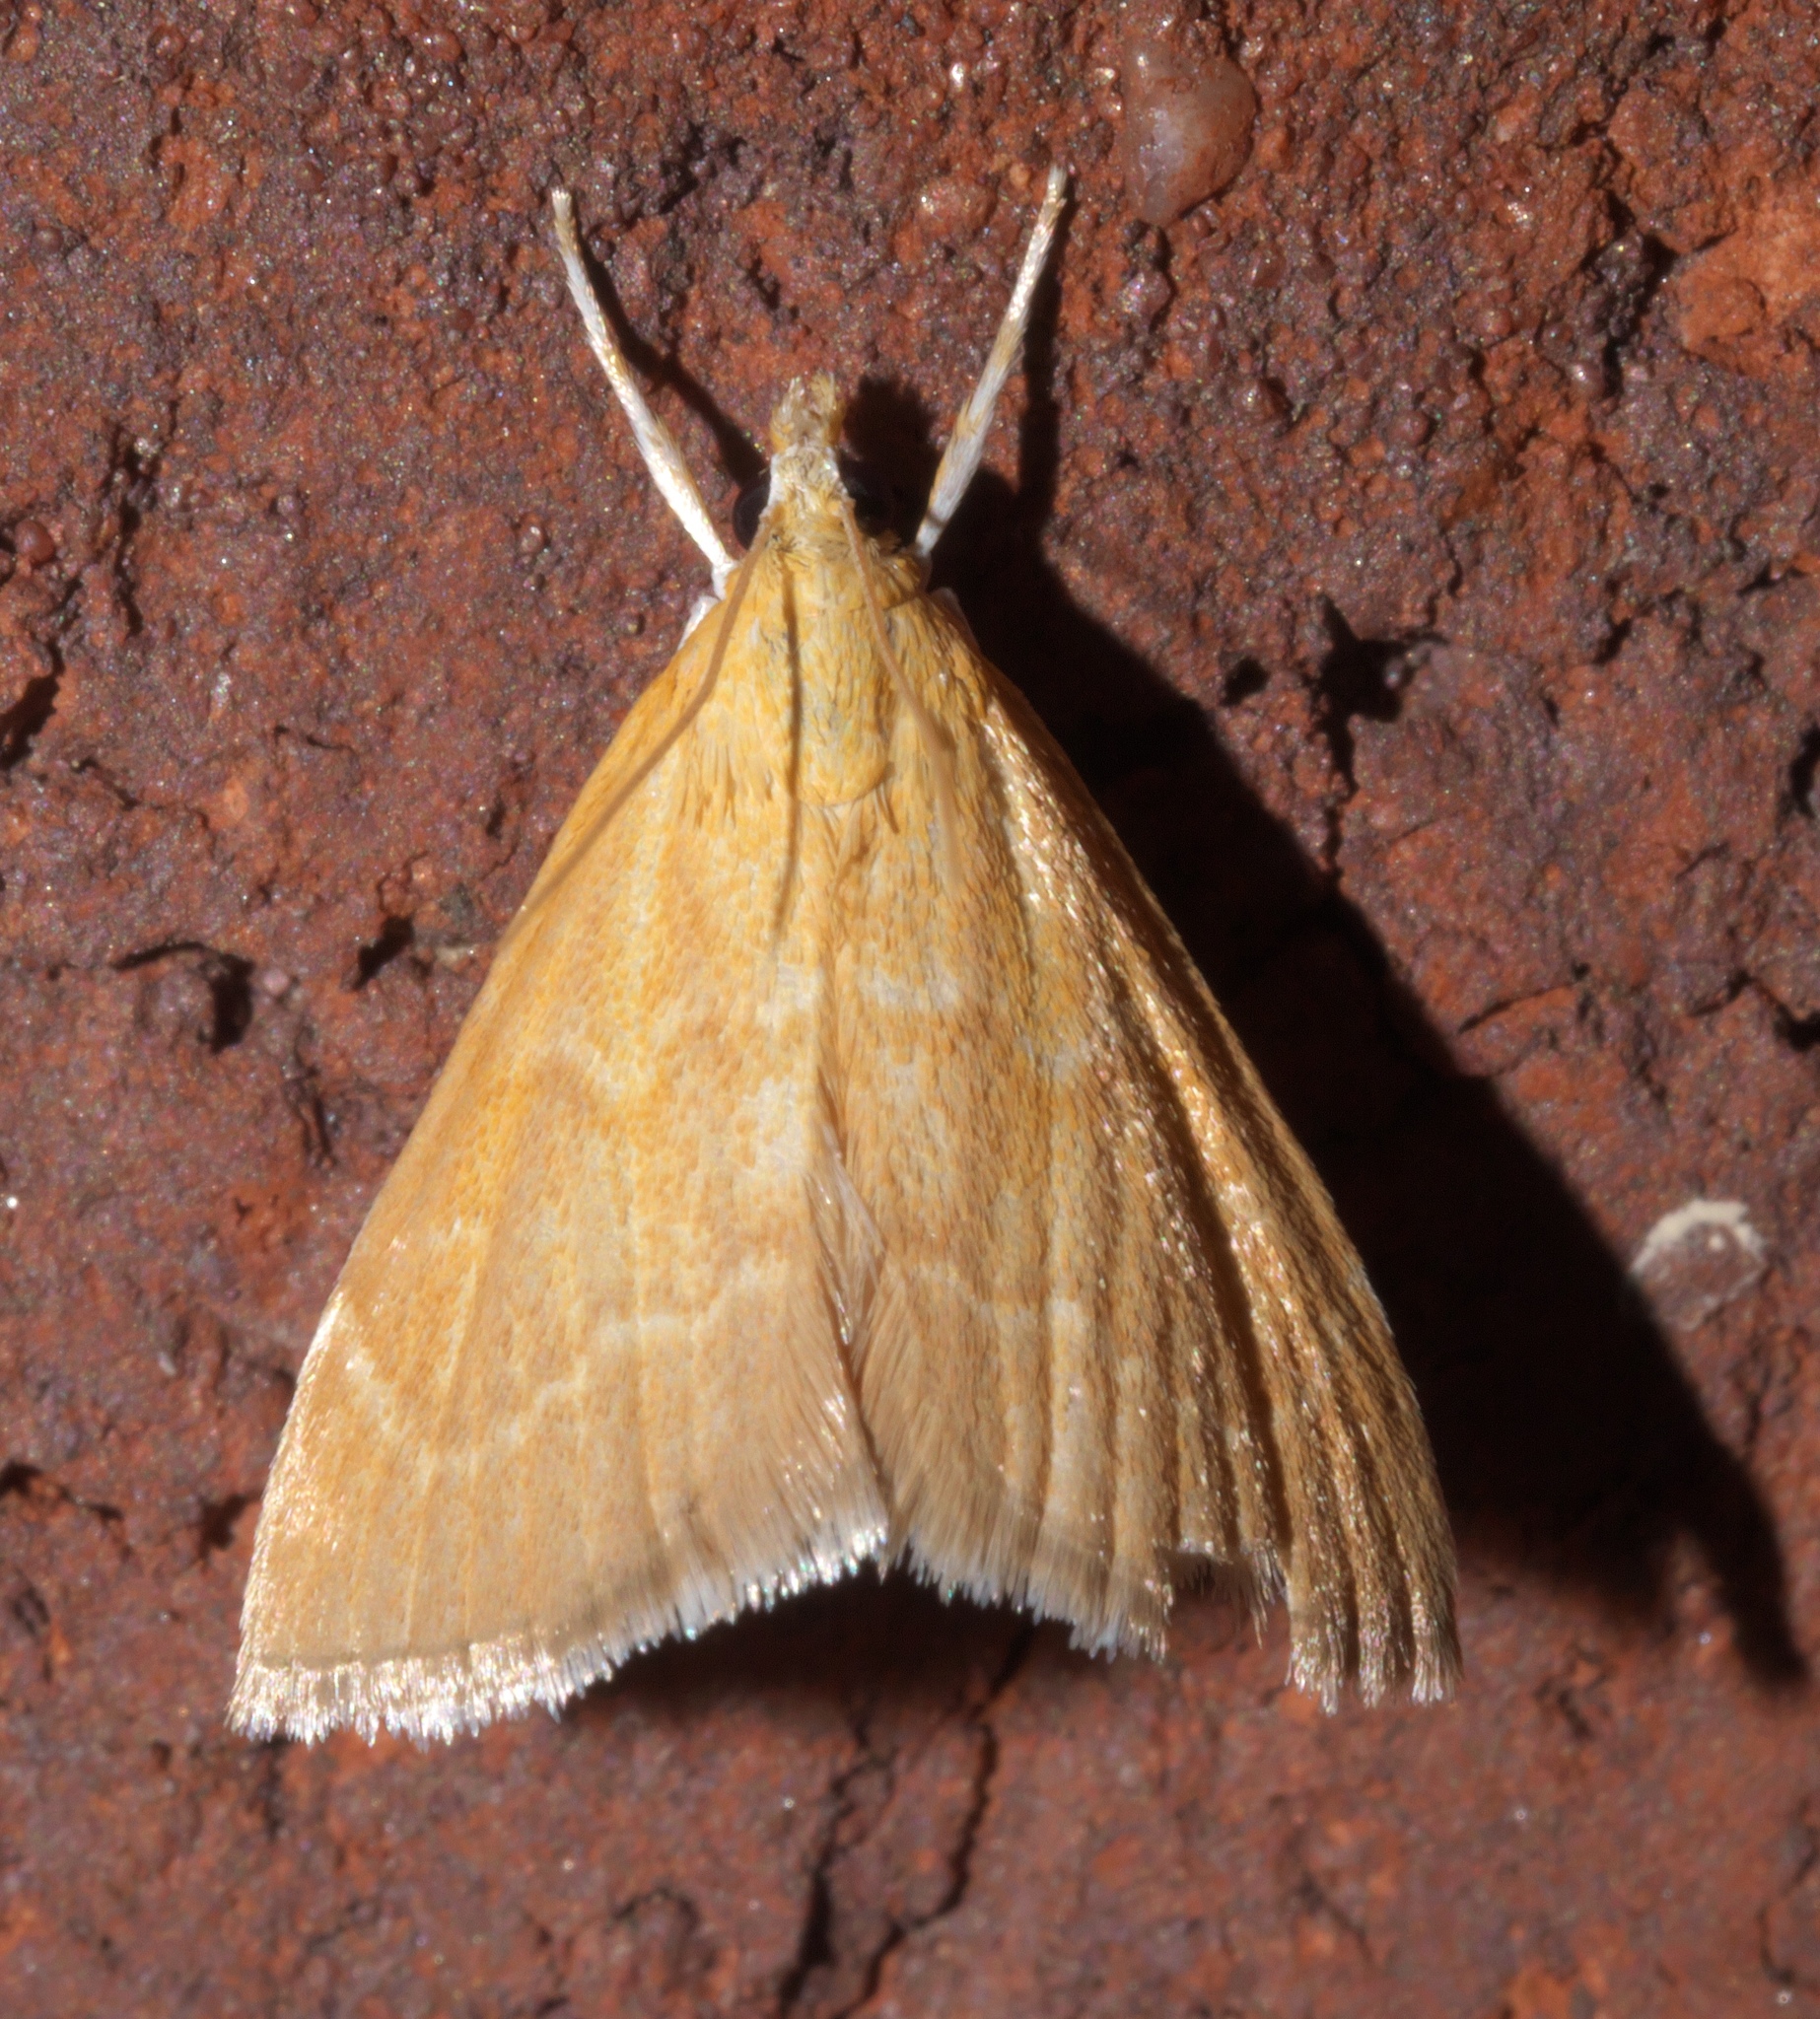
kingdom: Animalia
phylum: Arthropoda
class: Insecta
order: Lepidoptera
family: Crambidae
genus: Glaphyria
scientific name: Glaphyria invisalis
